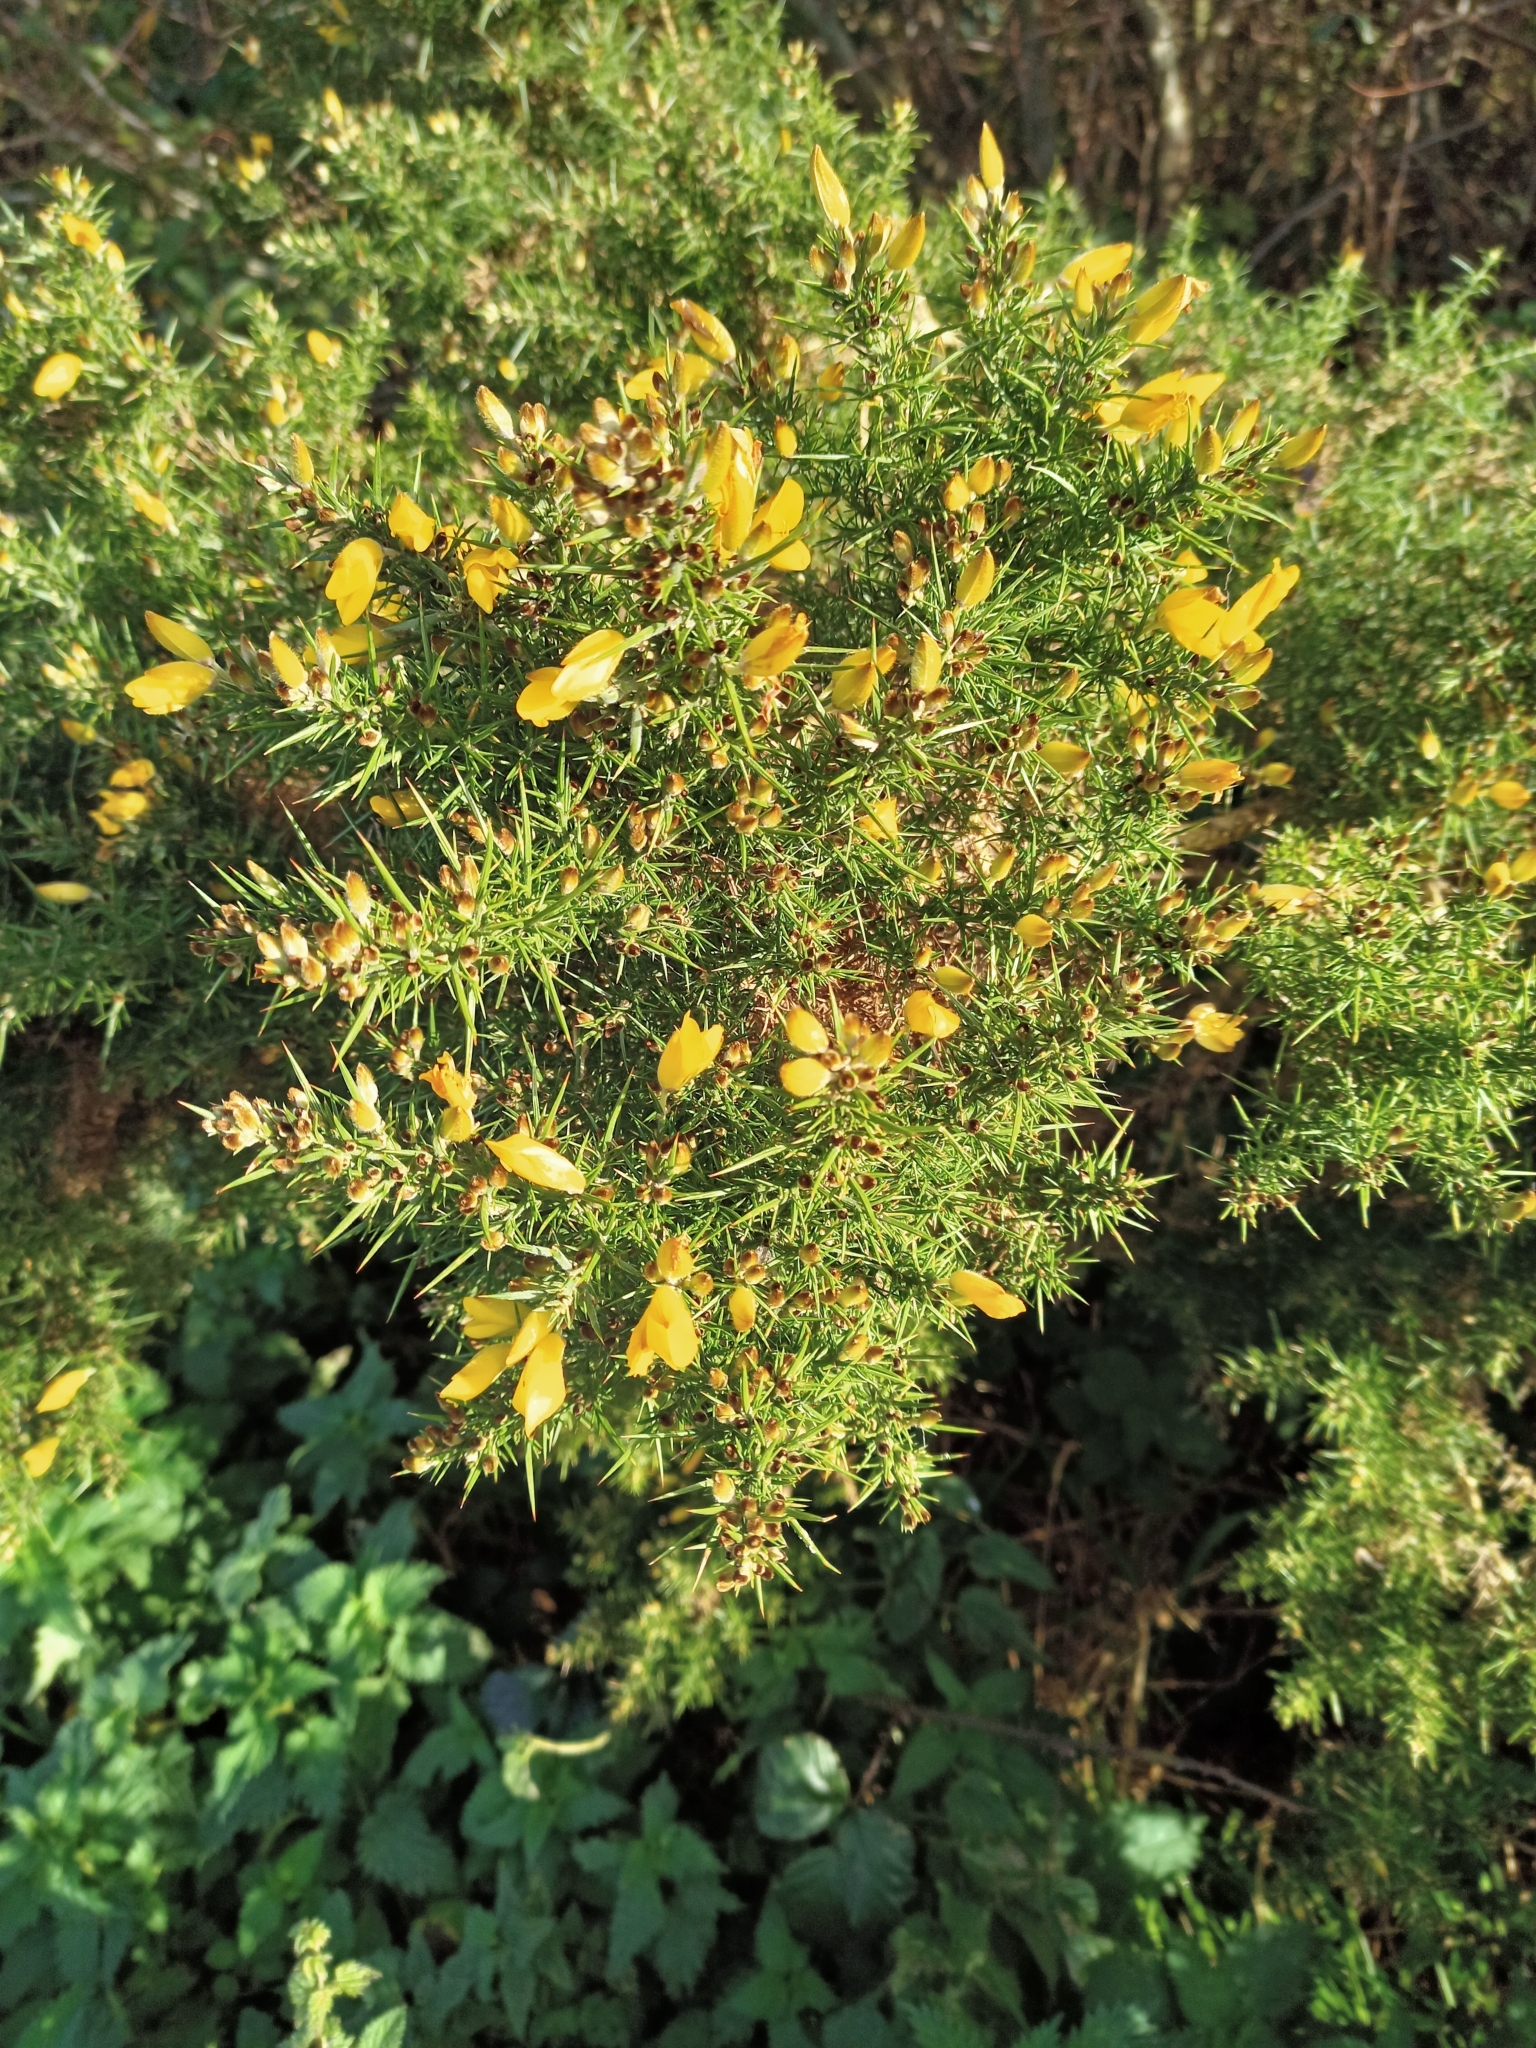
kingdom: Plantae
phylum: Tracheophyta
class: Magnoliopsida
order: Fabales
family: Fabaceae
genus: Ulex
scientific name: Ulex europaeus
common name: Common gorse
